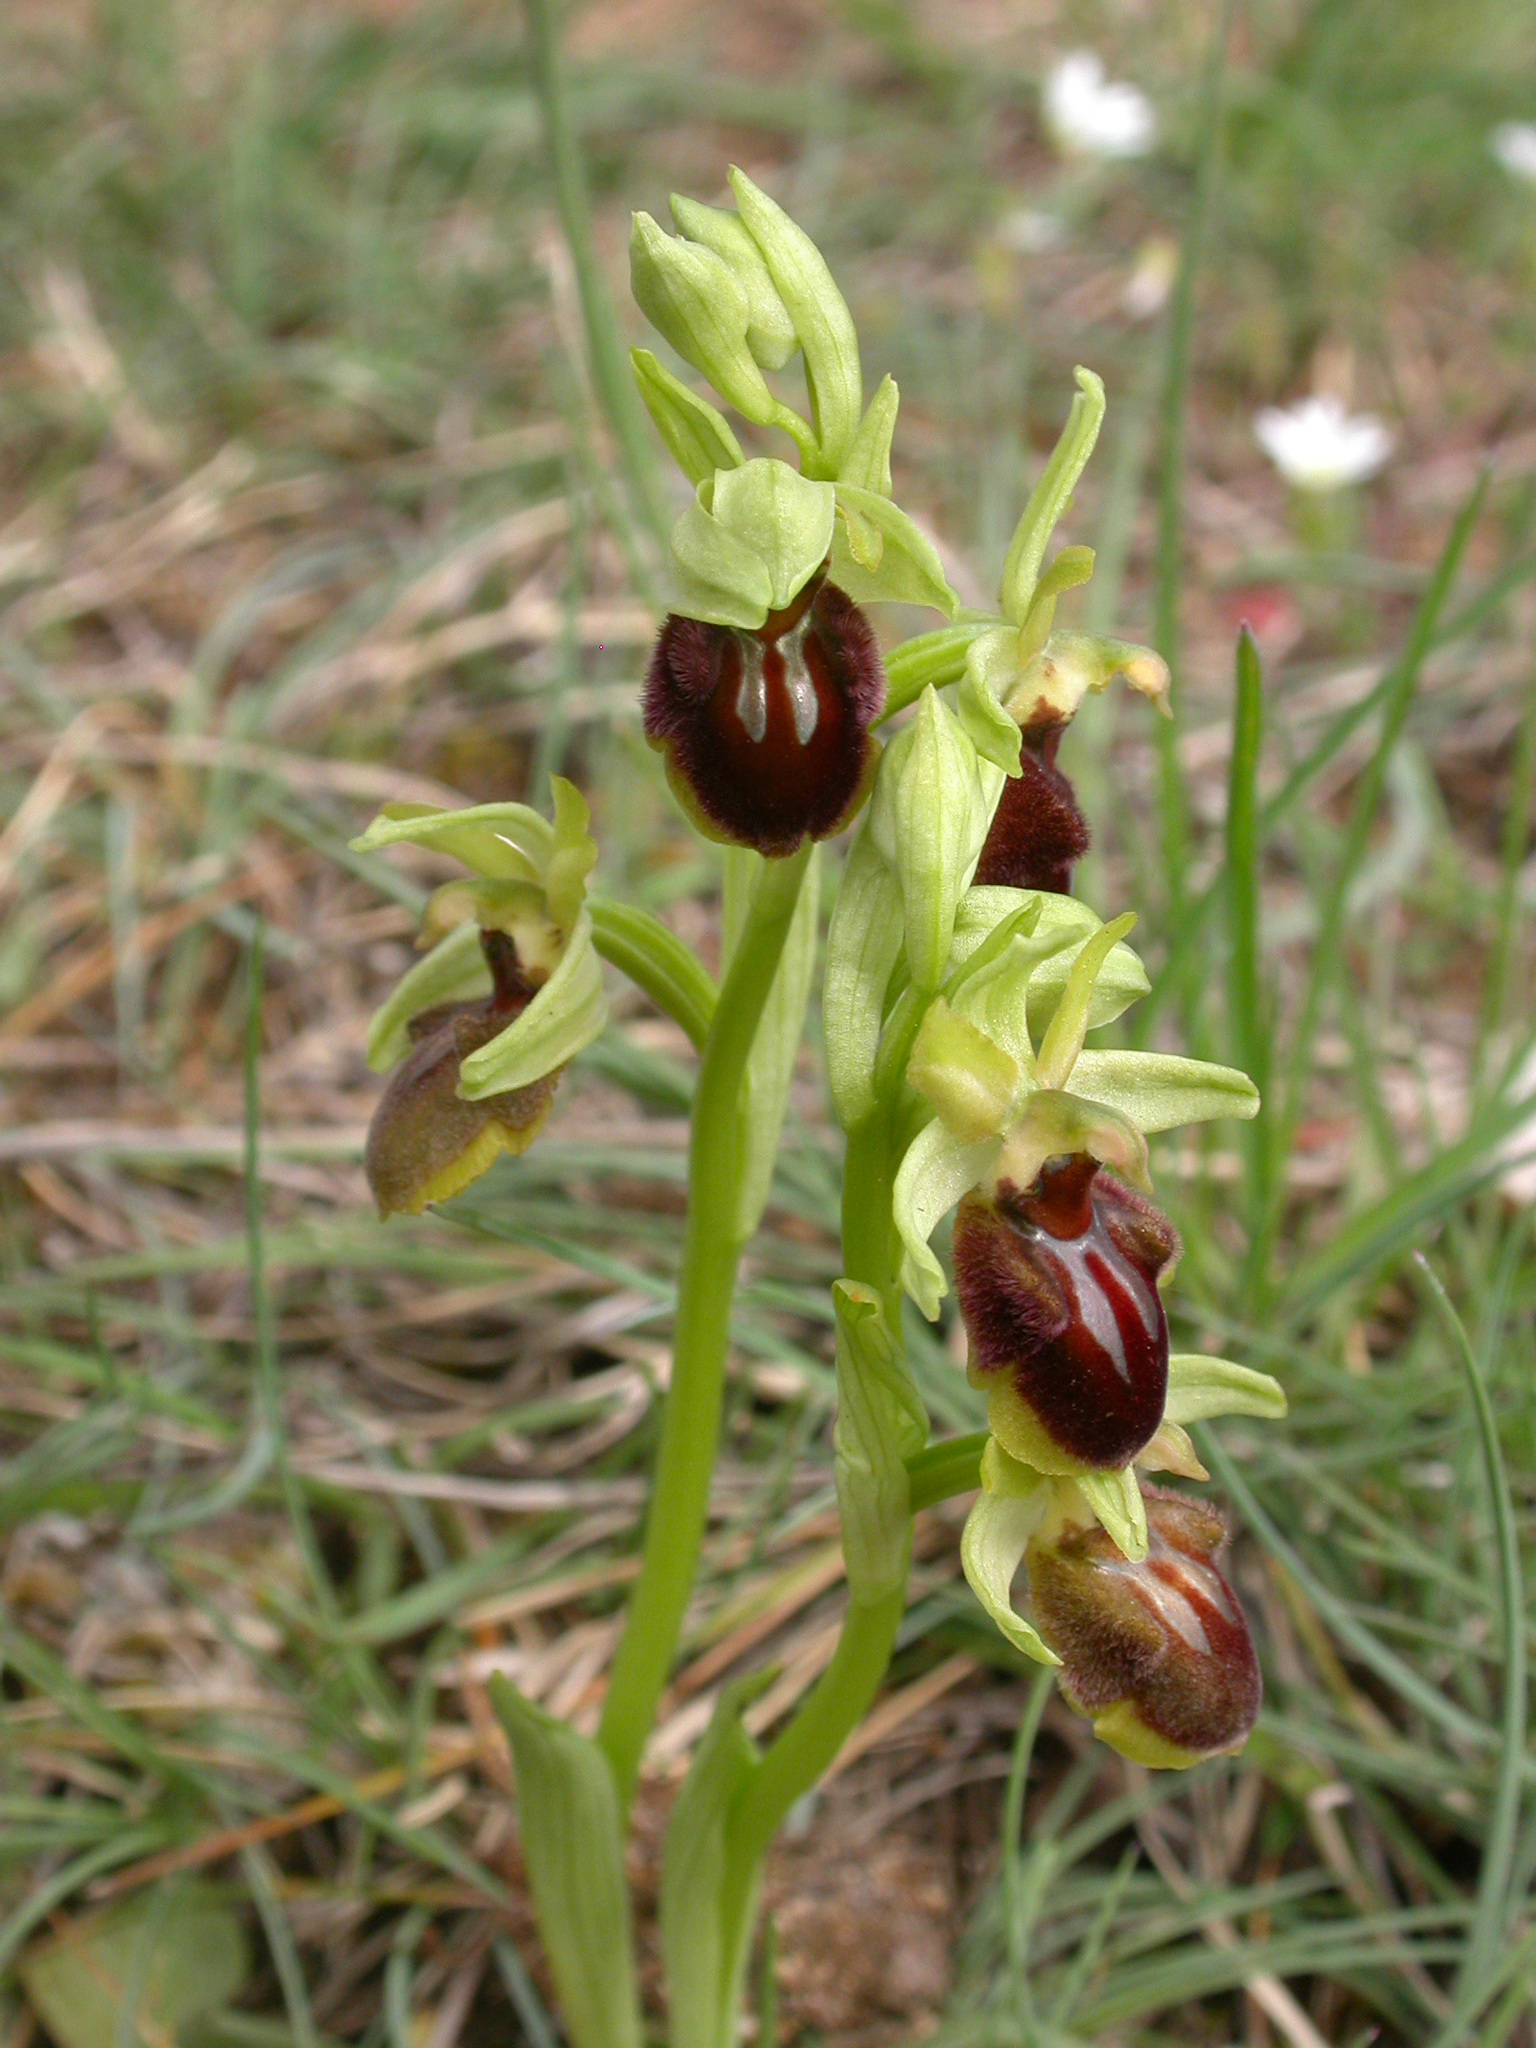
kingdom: Plantae
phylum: Tracheophyta
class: Liliopsida
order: Asparagales
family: Orchidaceae
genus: Ophrys
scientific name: Ophrys sphegodes
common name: Early spider-orchid
